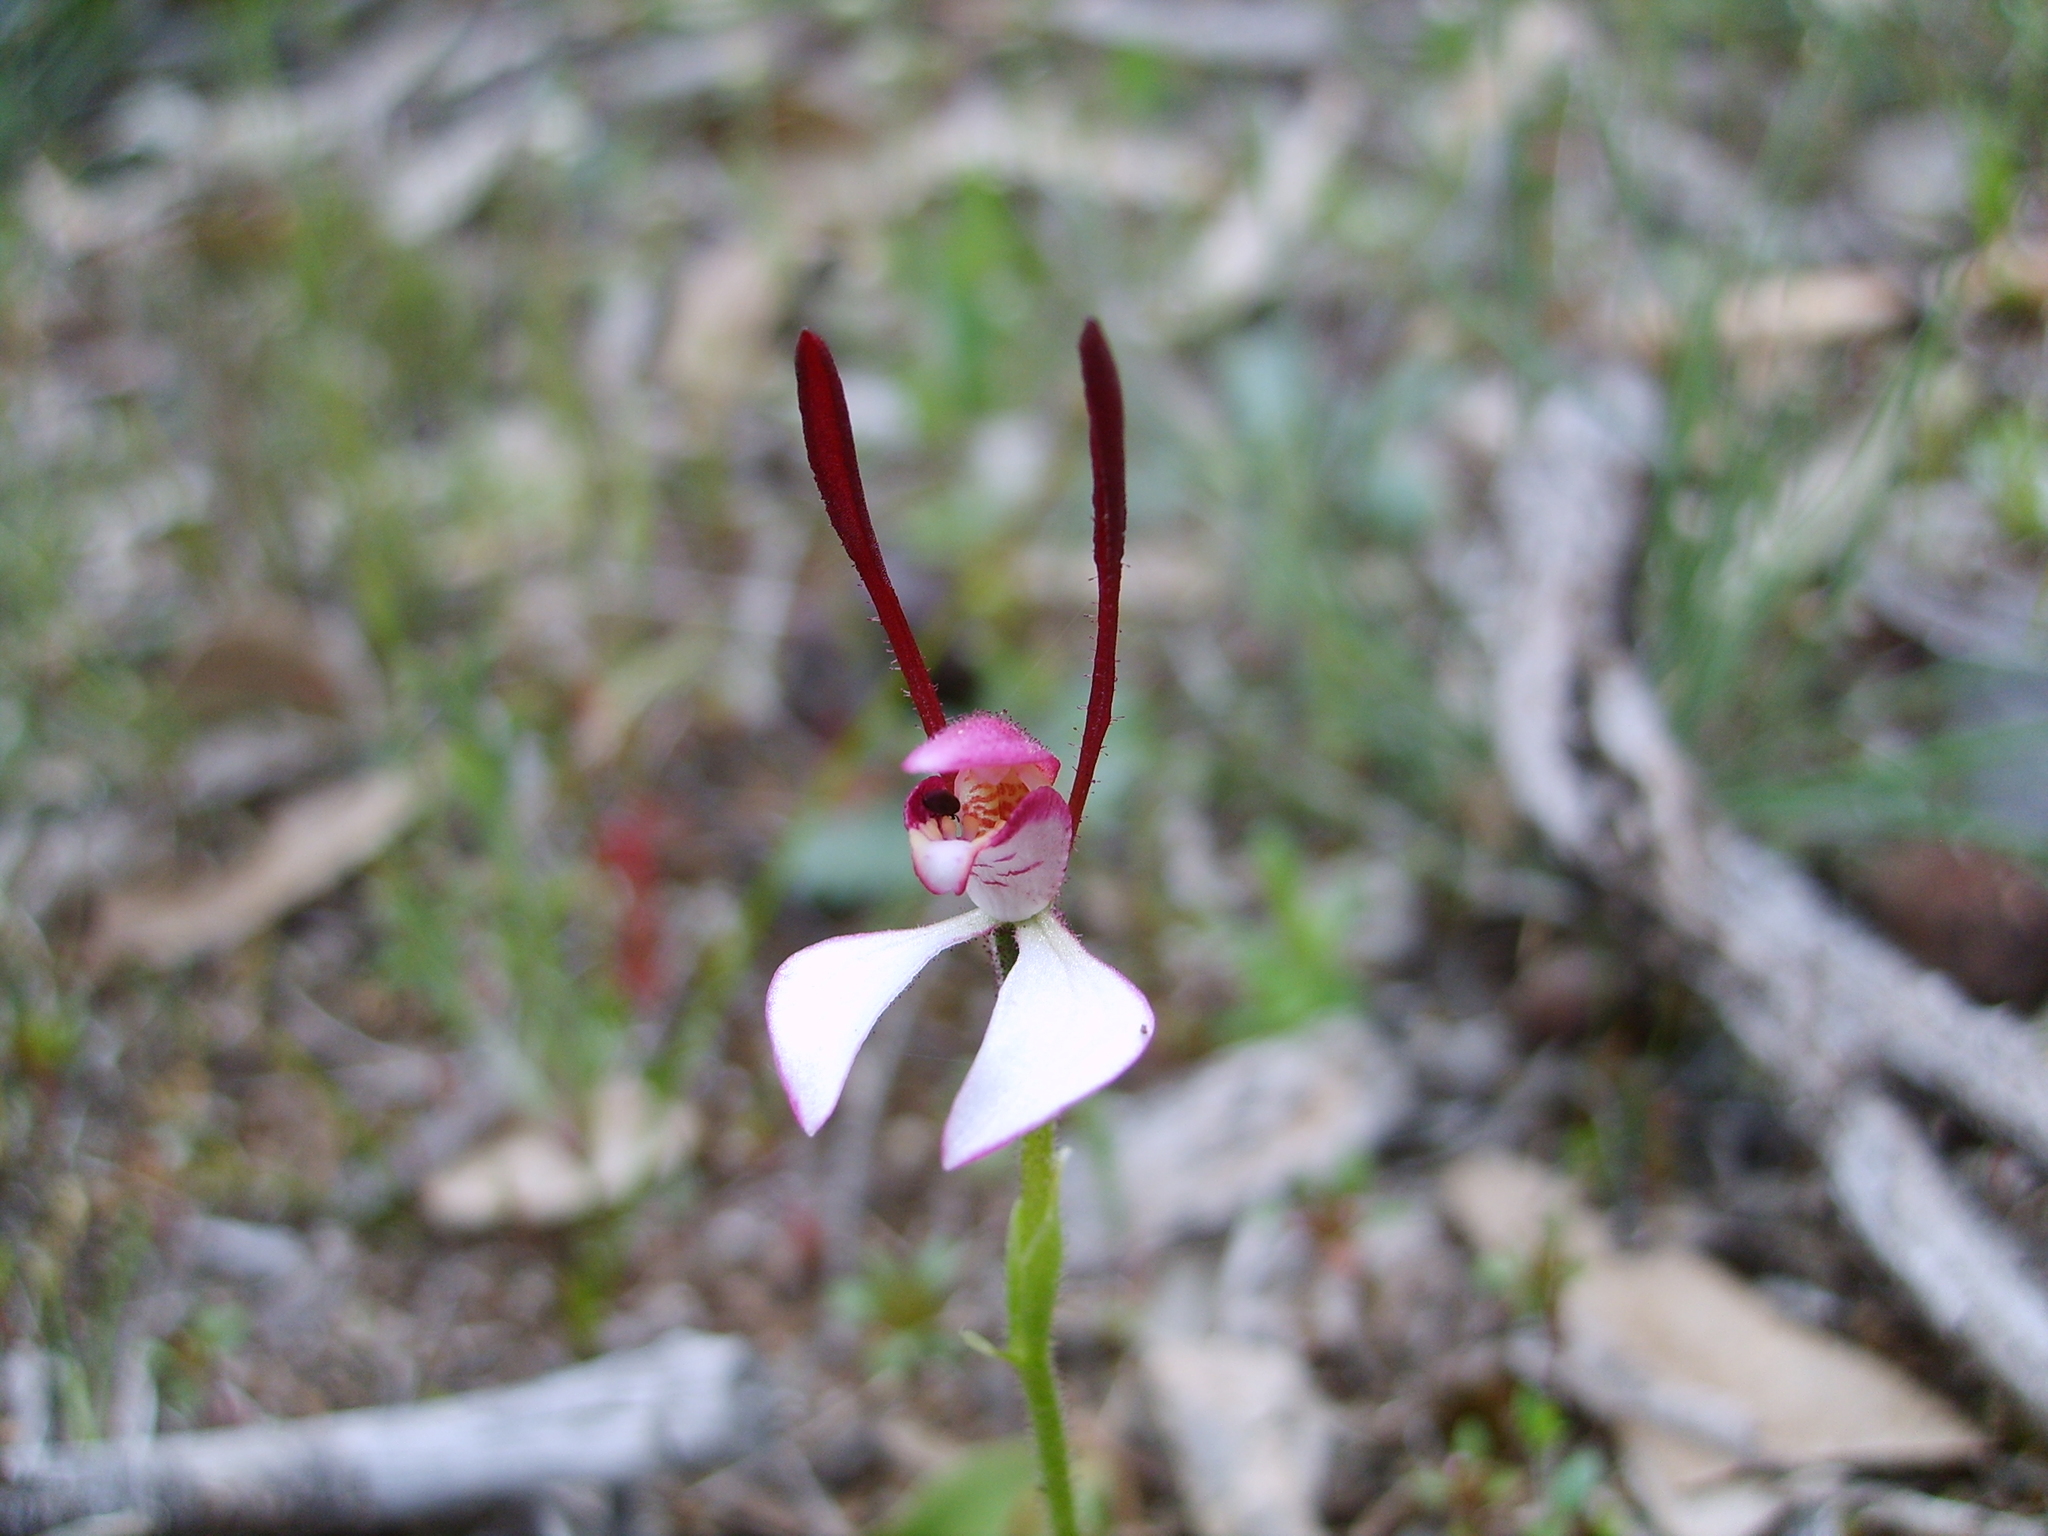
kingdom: Plantae
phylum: Tracheophyta
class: Liliopsida
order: Asparagales
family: Orchidaceae
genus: Leptoceras
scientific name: Leptoceras menziesii
